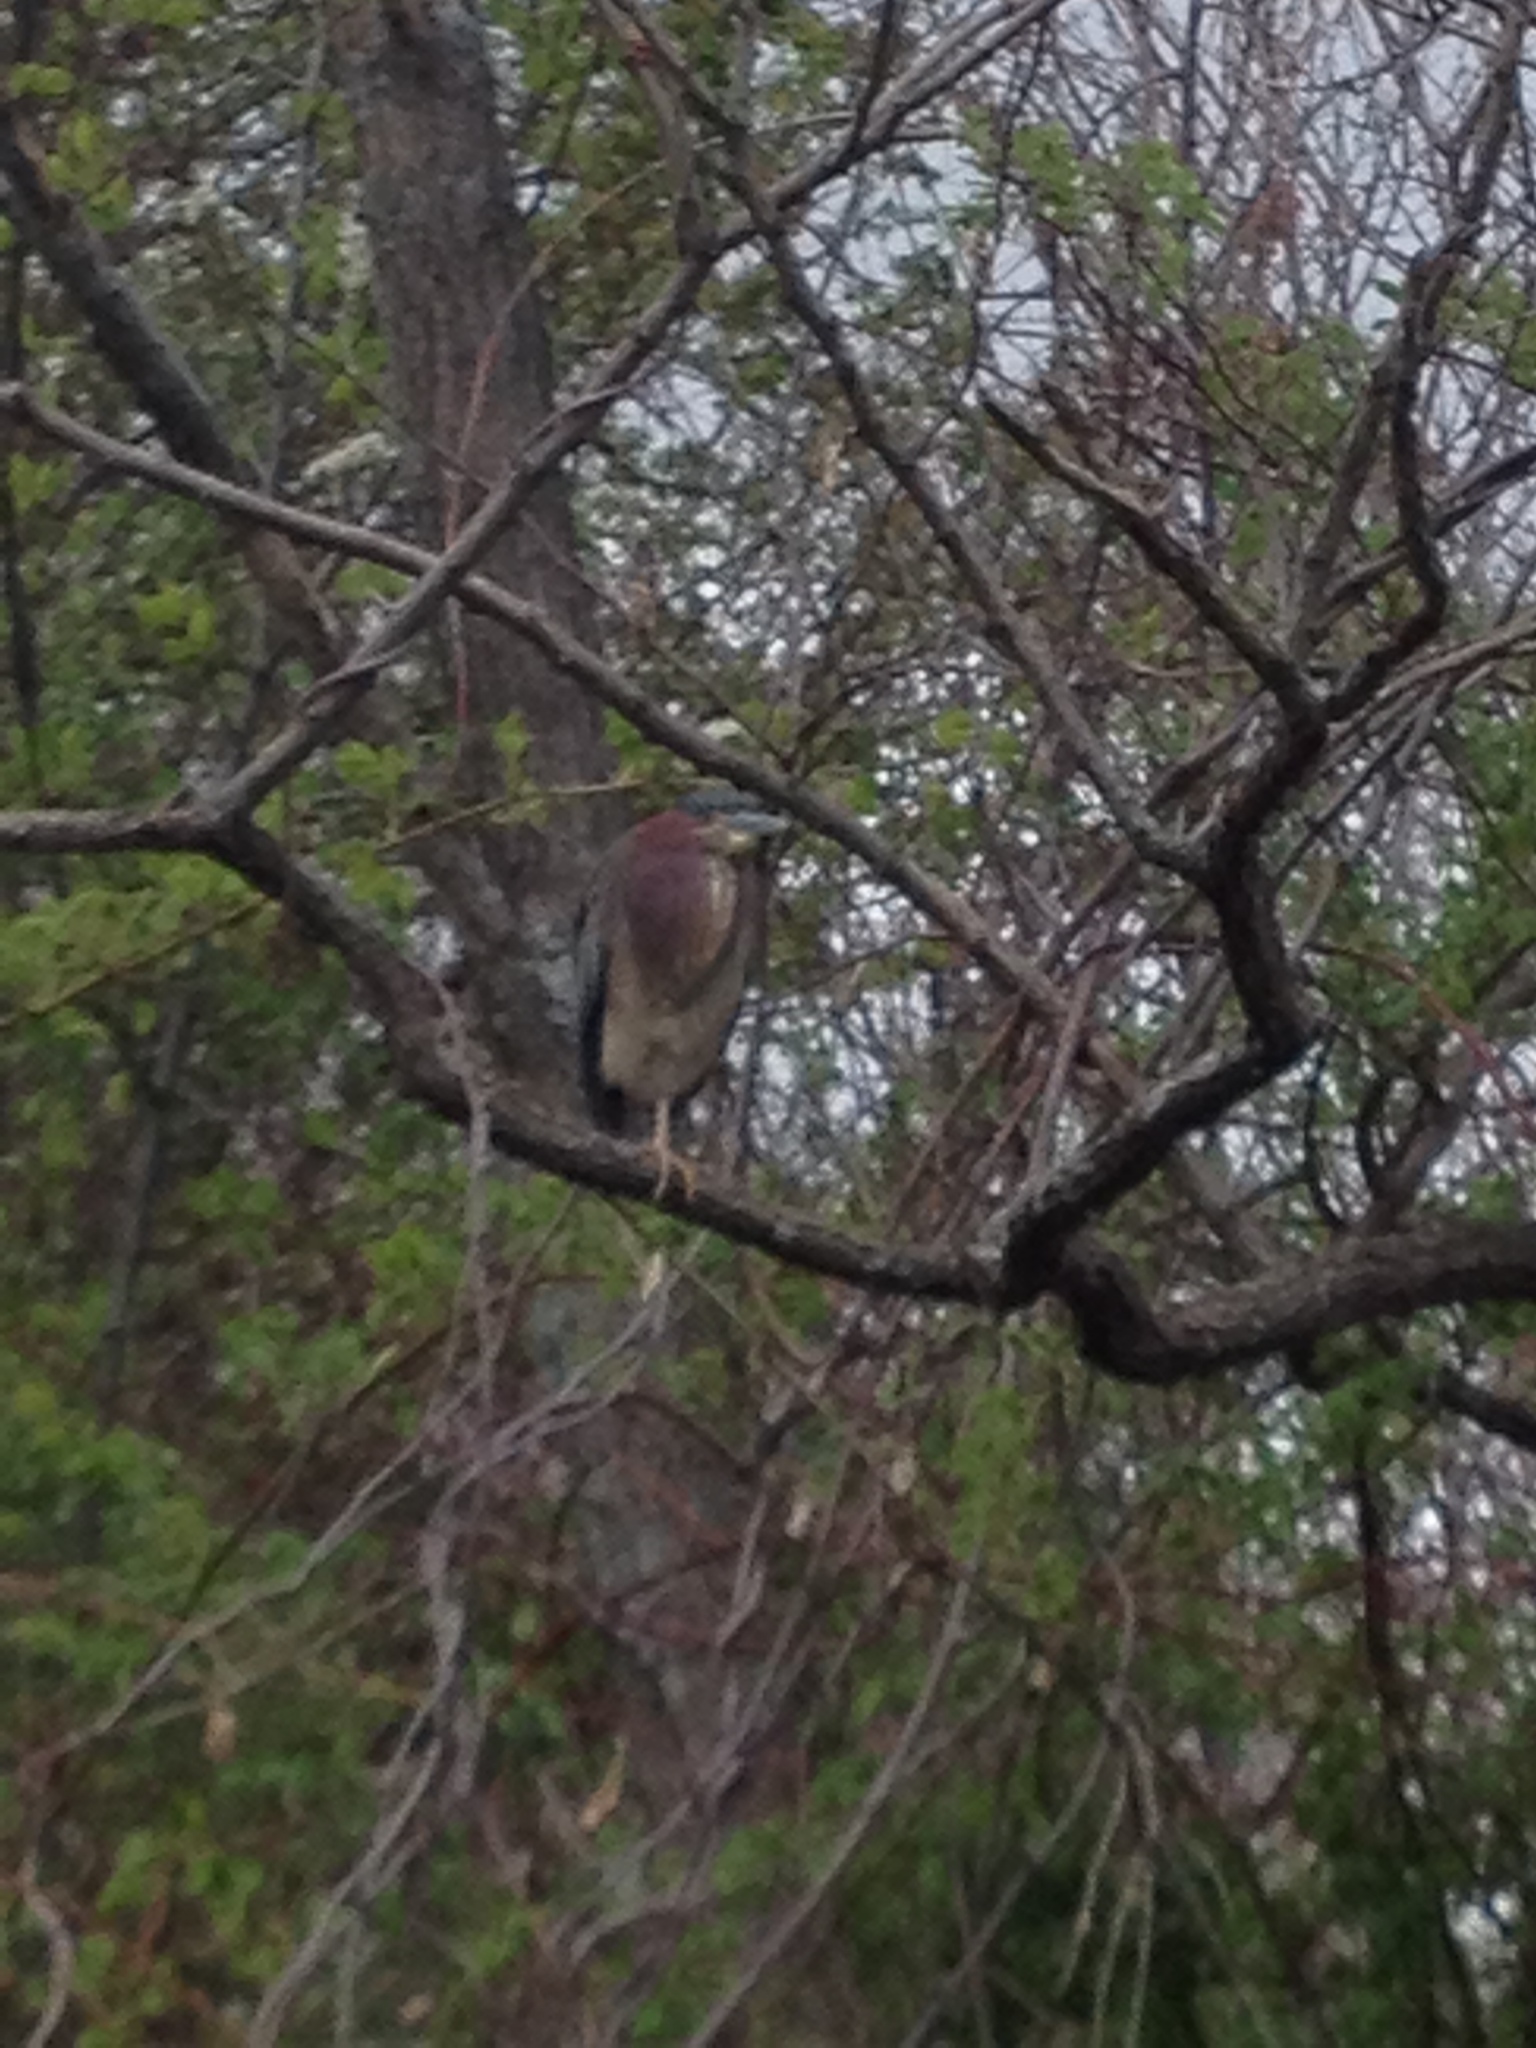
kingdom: Animalia
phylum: Chordata
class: Aves
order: Pelecaniformes
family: Ardeidae
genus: Butorides
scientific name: Butorides virescens
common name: Green heron
